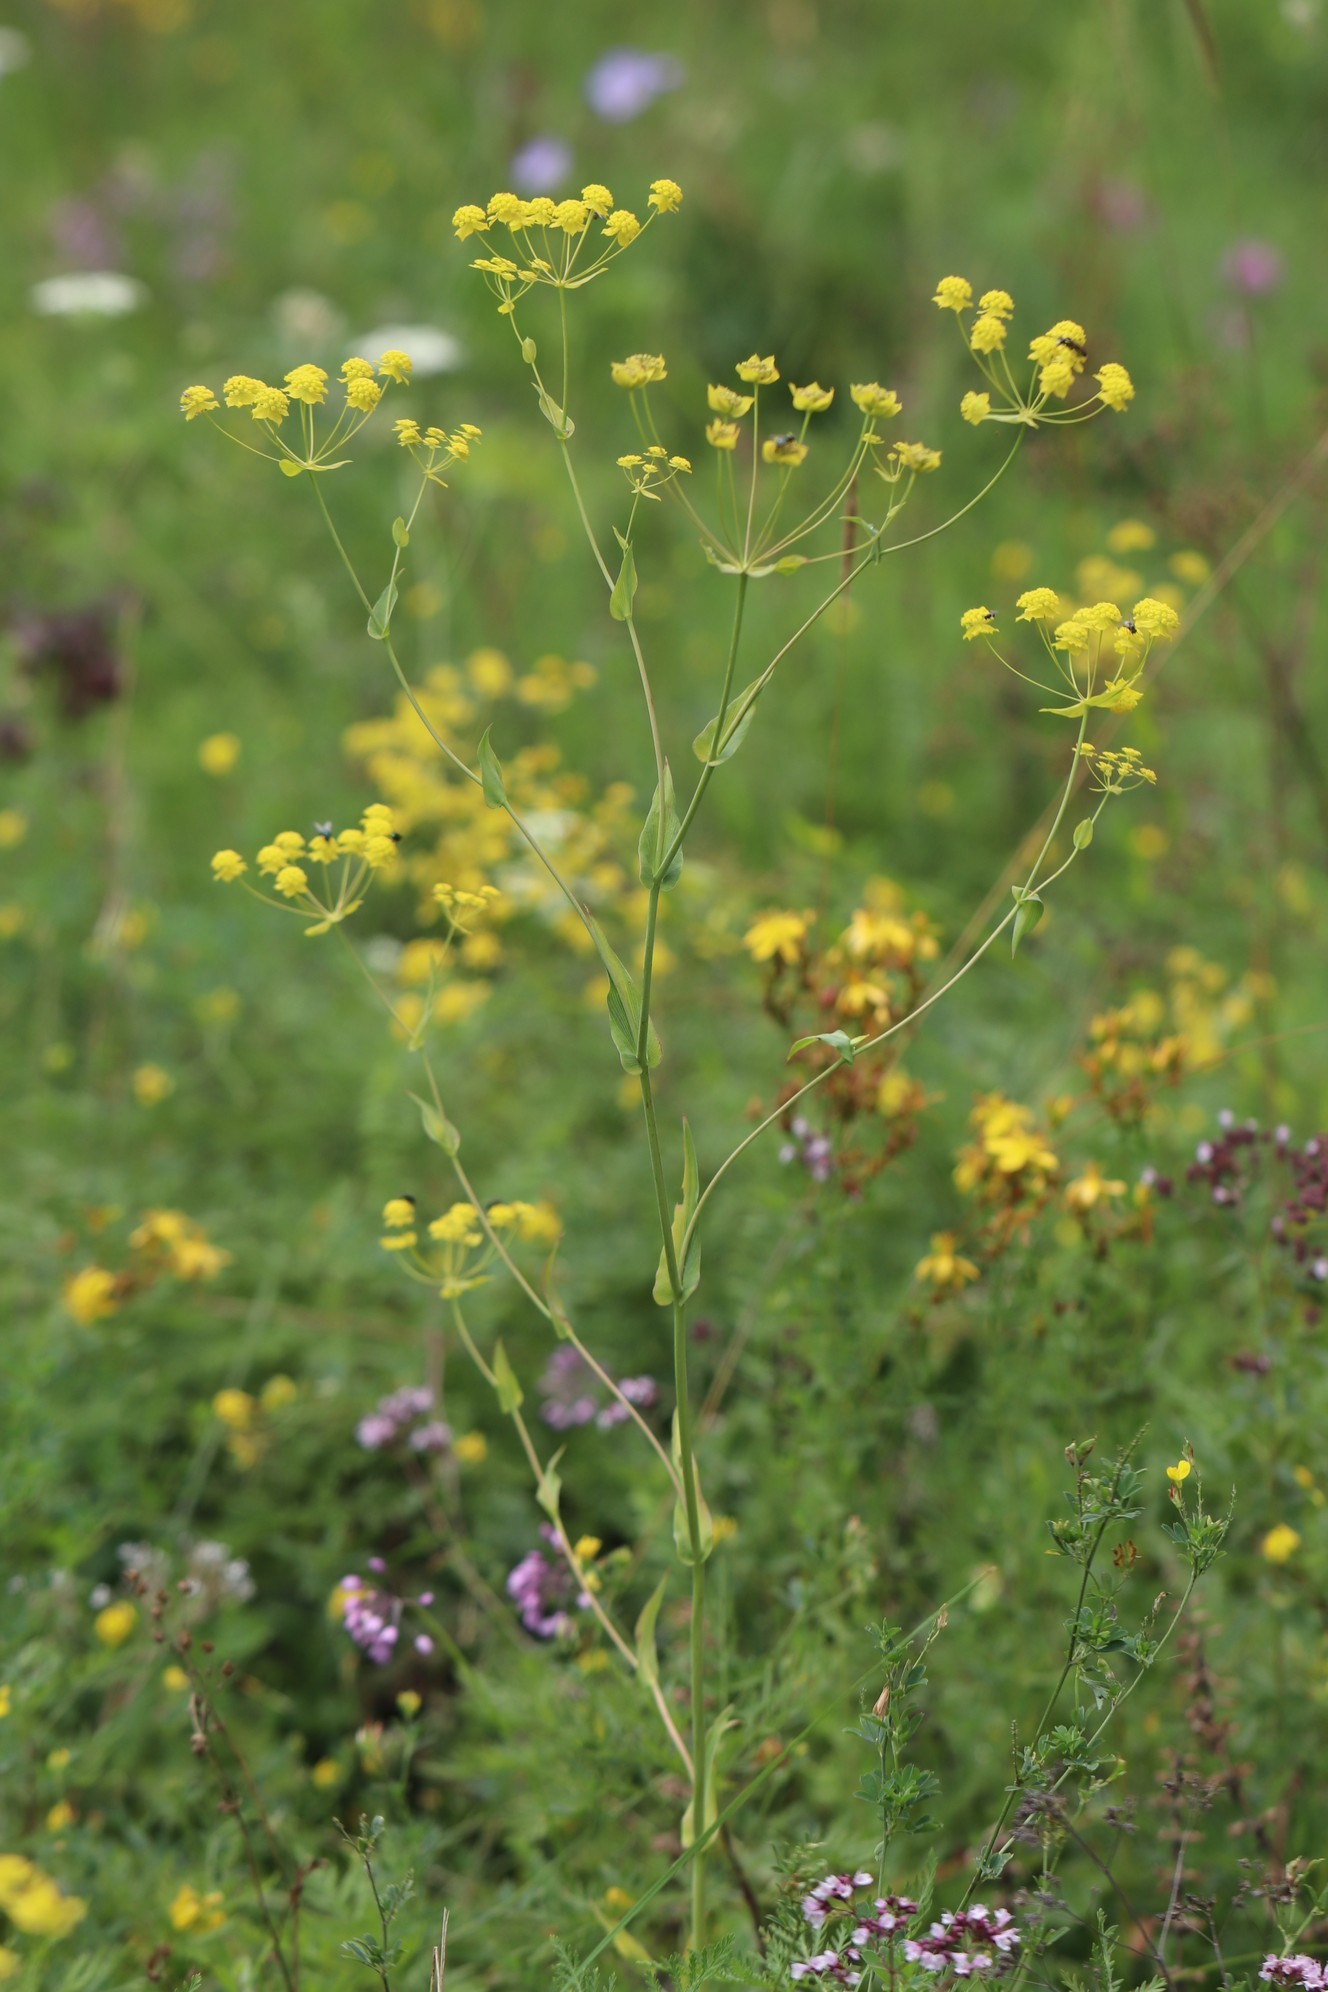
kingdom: Plantae
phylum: Tracheophyta
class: Magnoliopsida
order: Apiales
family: Apiaceae
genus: Bupleurum
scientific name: Bupleurum multinerve
